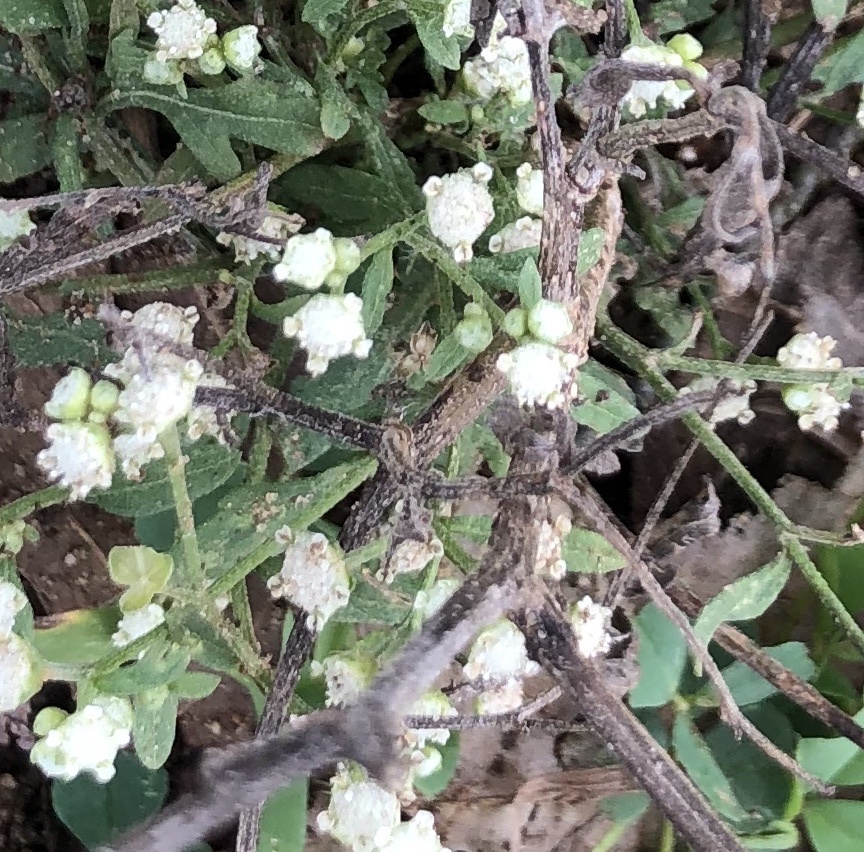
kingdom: Plantae
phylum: Tracheophyta
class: Magnoliopsida
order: Asterales
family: Asteraceae
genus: Parthenium
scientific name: Parthenium hysterophorus
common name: Santa maria feverfew
